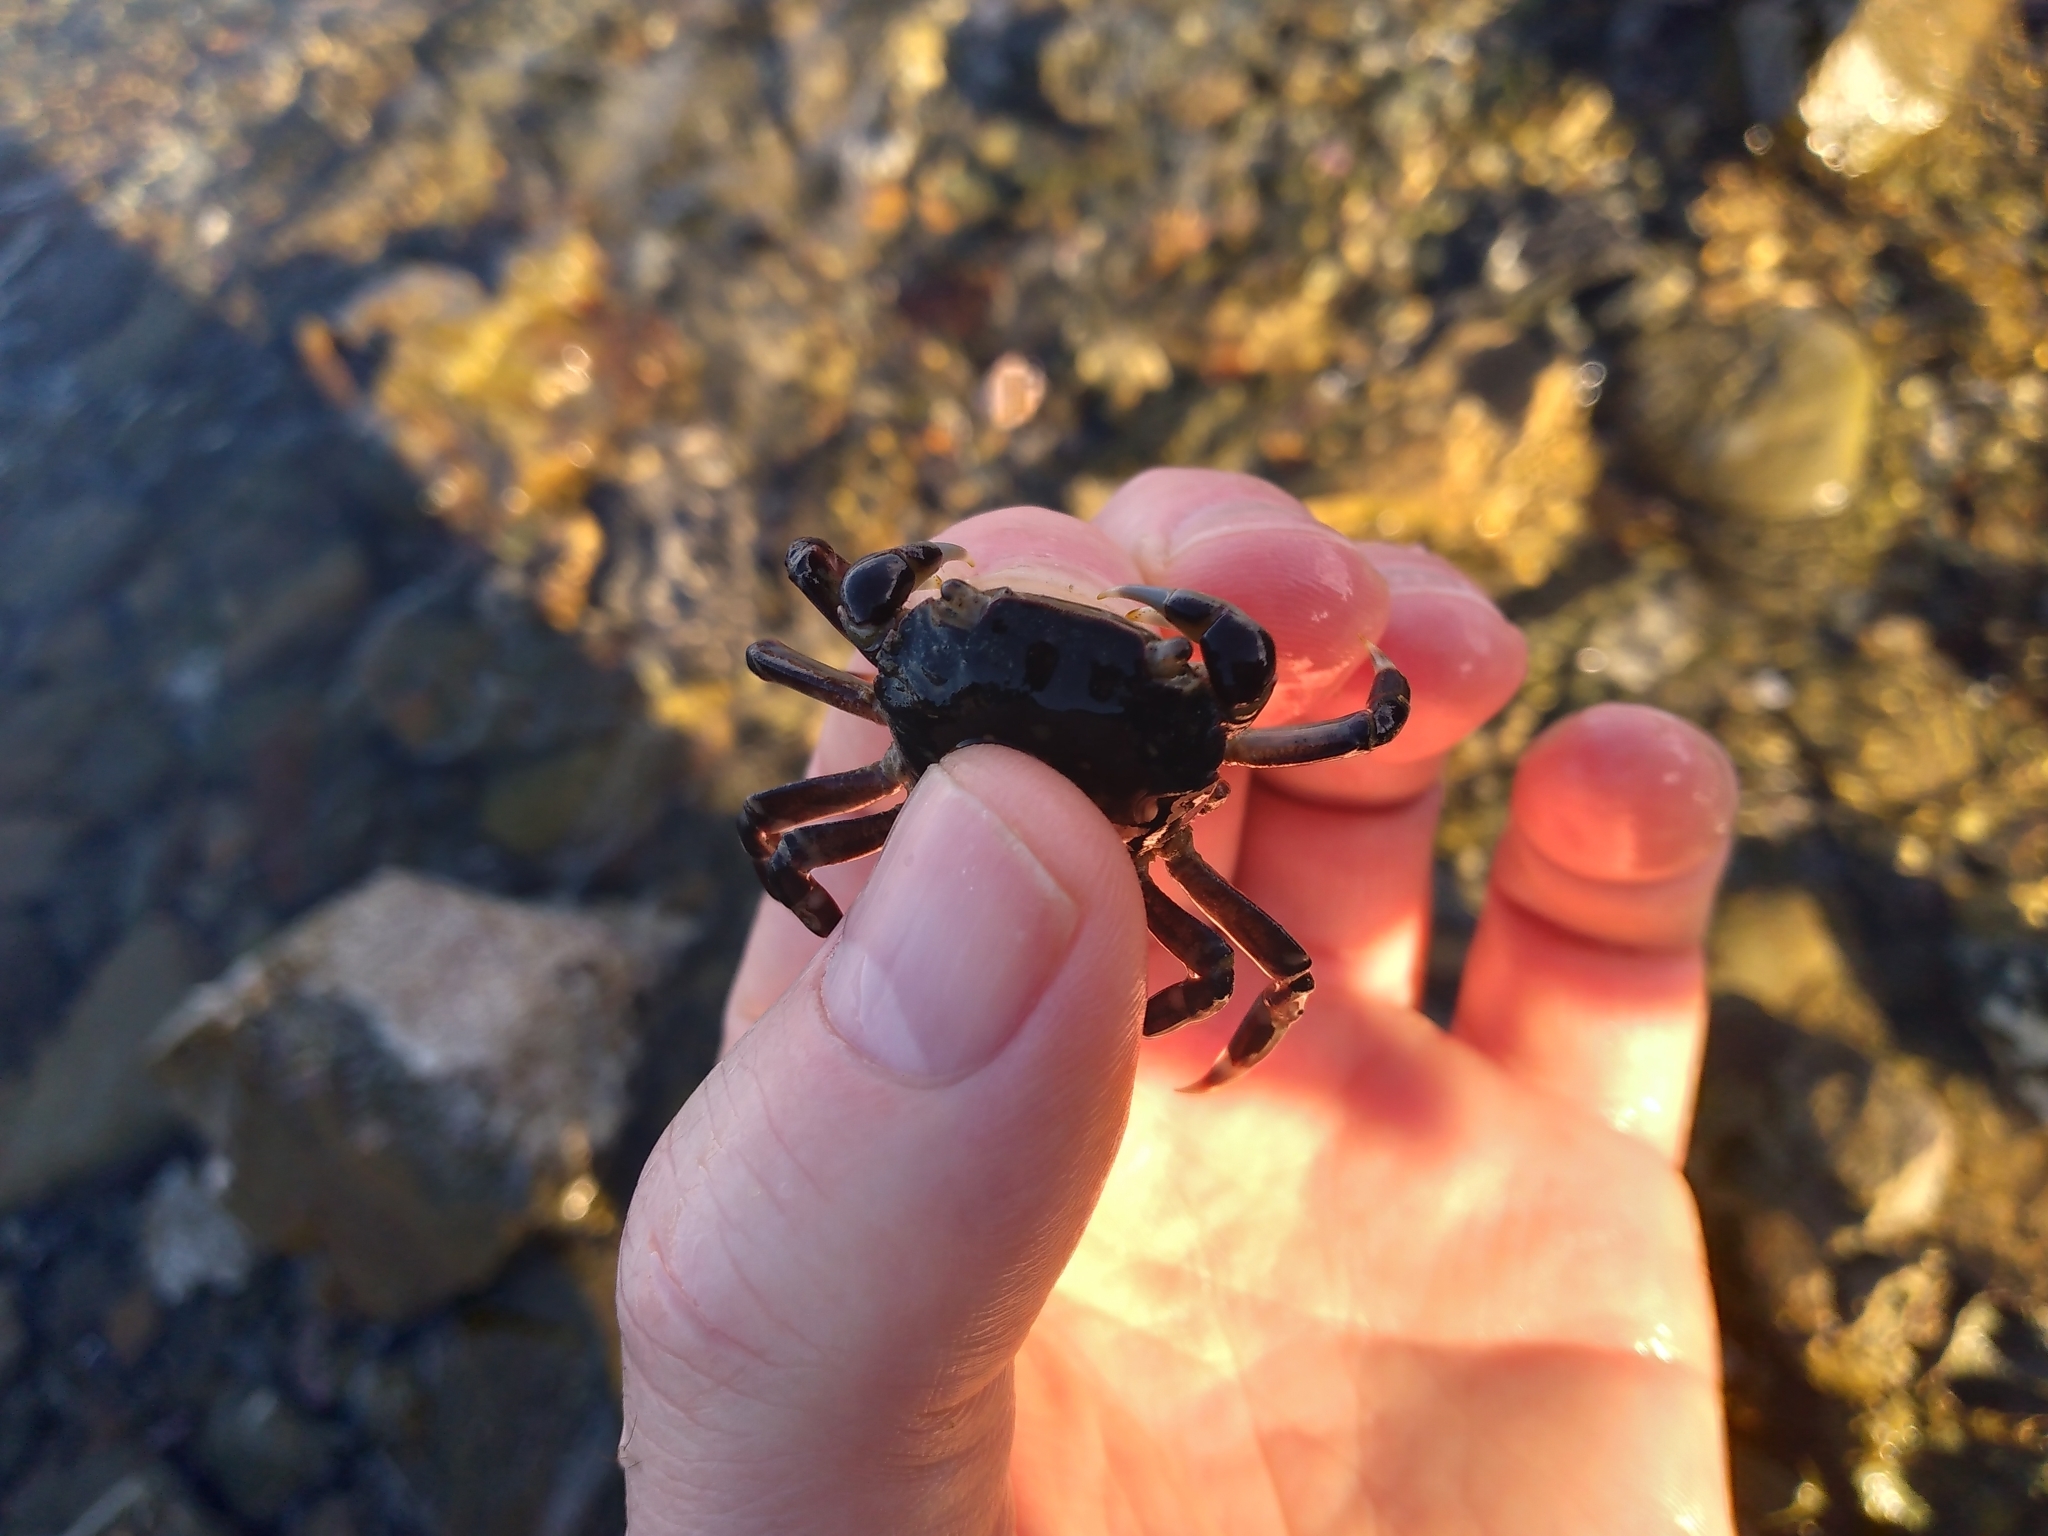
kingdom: Animalia
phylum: Arthropoda
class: Malacostraca
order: Decapoda
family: Varunidae
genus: Hemigrapsus
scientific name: Hemigrapsus sexdentatus
